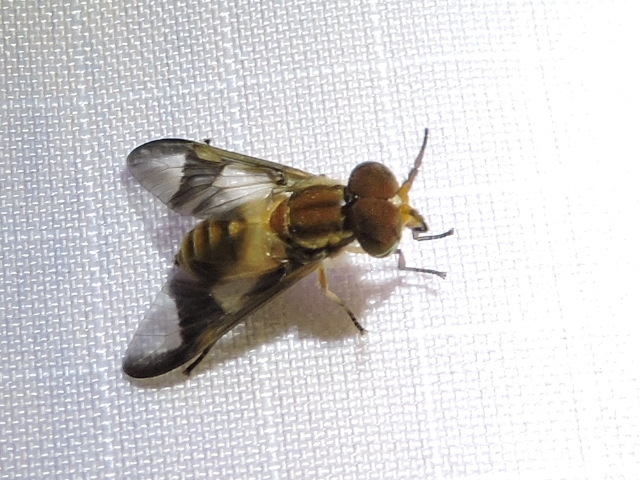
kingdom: Animalia
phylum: Arthropoda
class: Insecta
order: Diptera
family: Tabanidae
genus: Chrysops
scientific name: Chrysops atlanticus
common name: Atlantic deer fly
